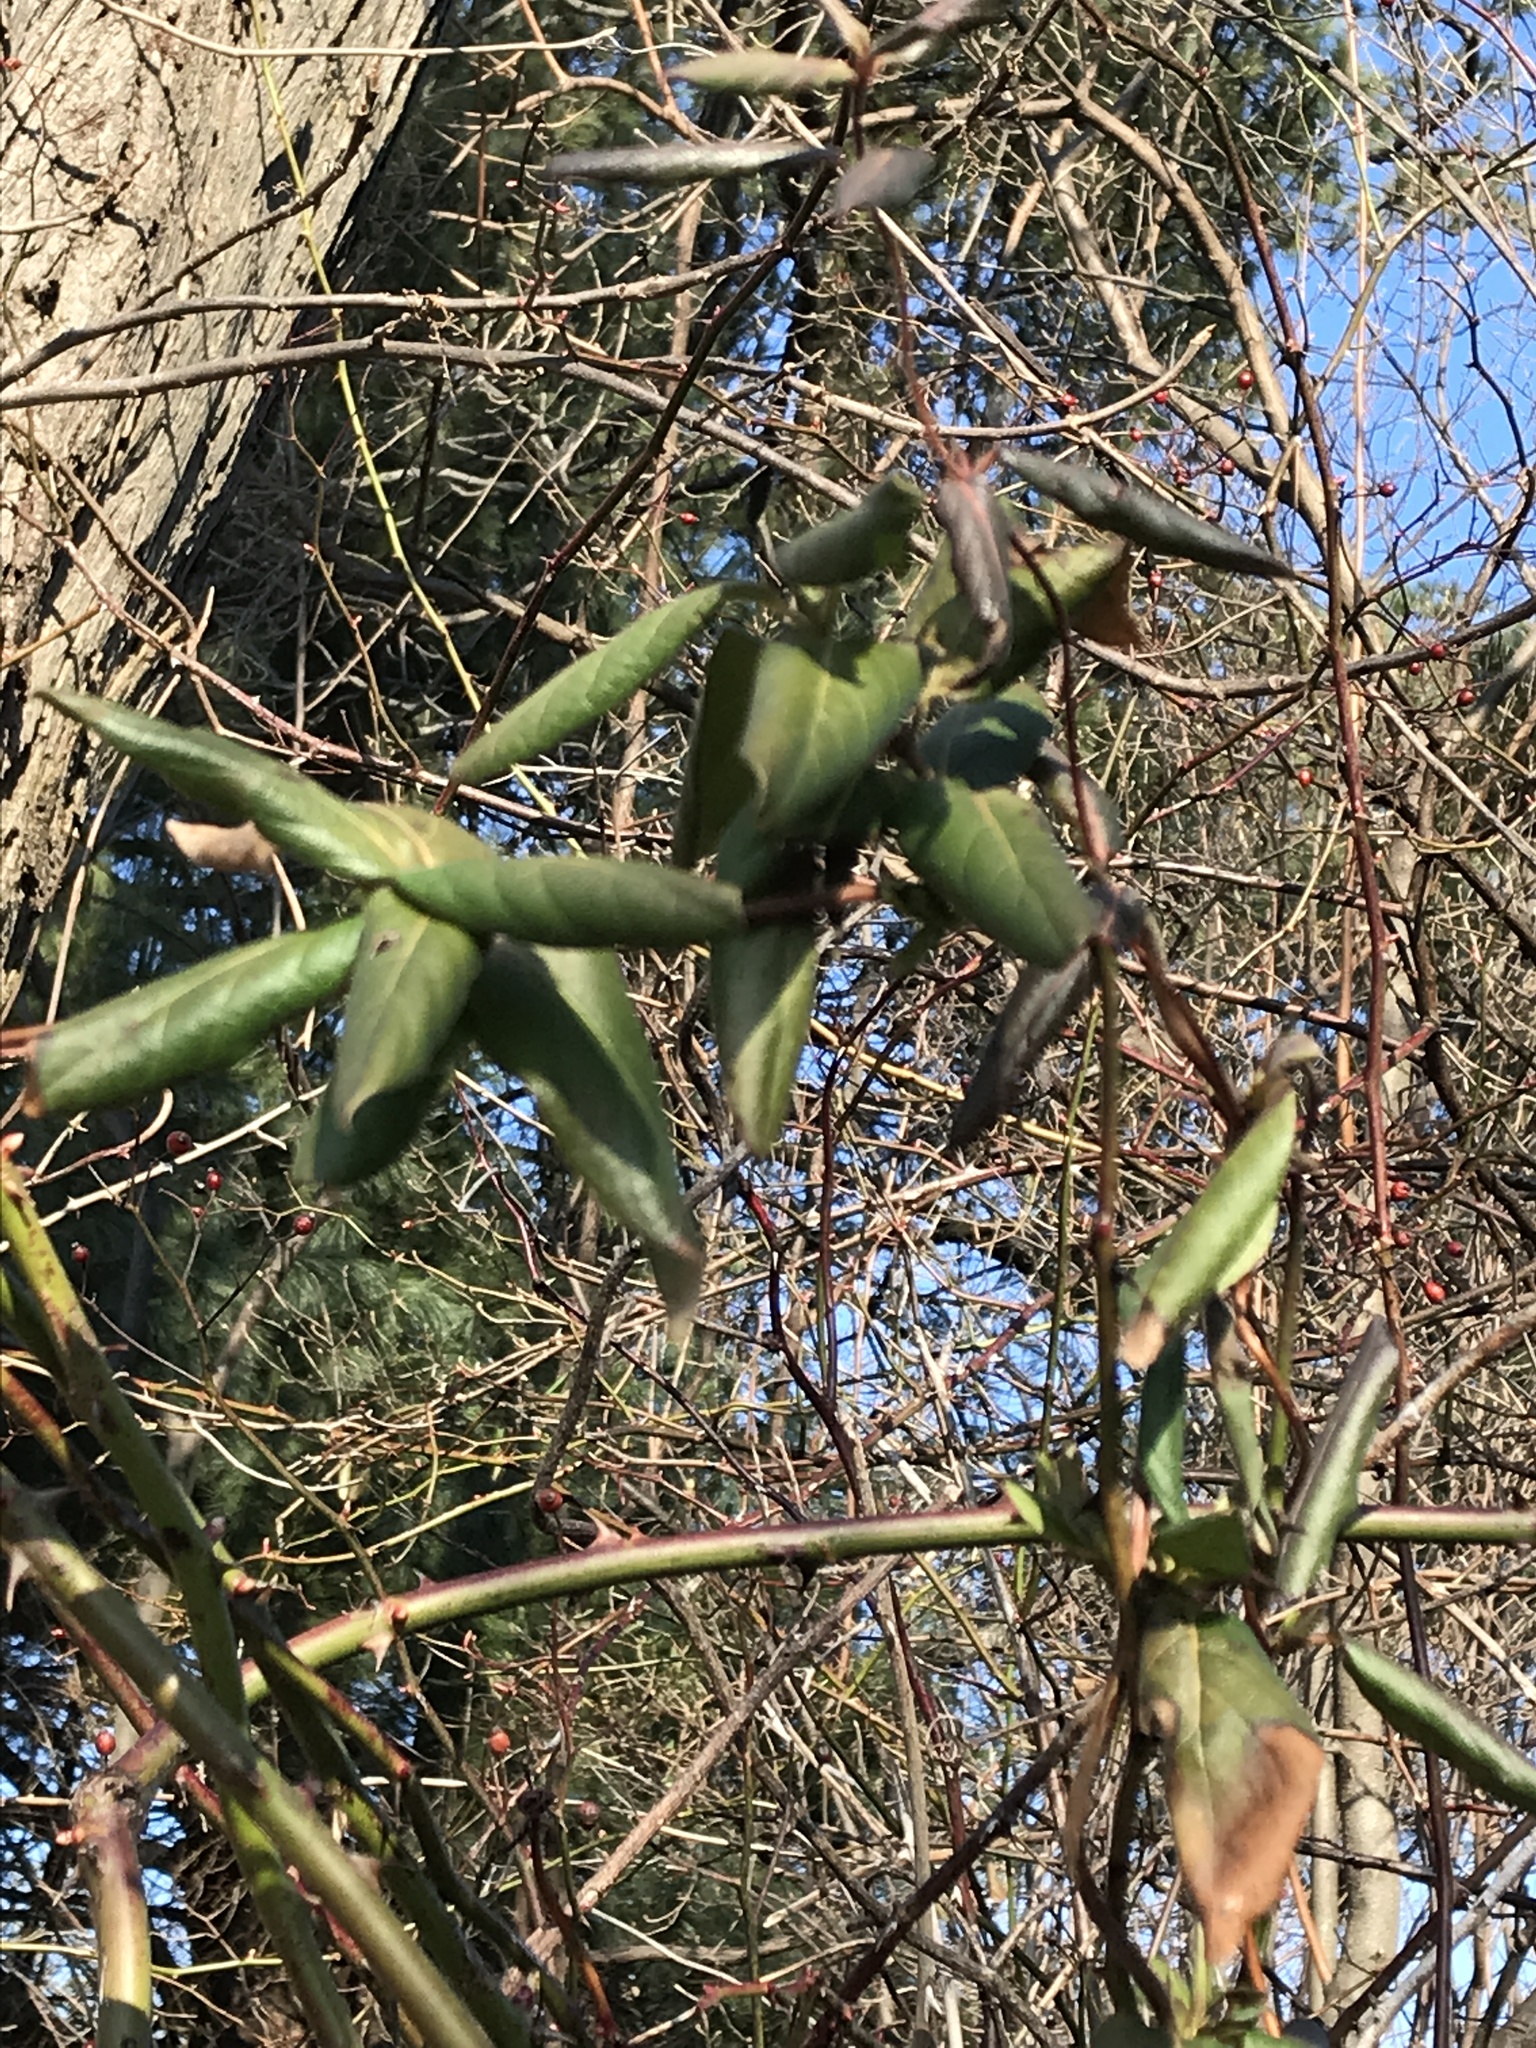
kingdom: Plantae
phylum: Tracheophyta
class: Magnoliopsida
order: Dipsacales
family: Caprifoliaceae
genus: Lonicera
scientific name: Lonicera japonica
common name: Japanese honeysuckle
